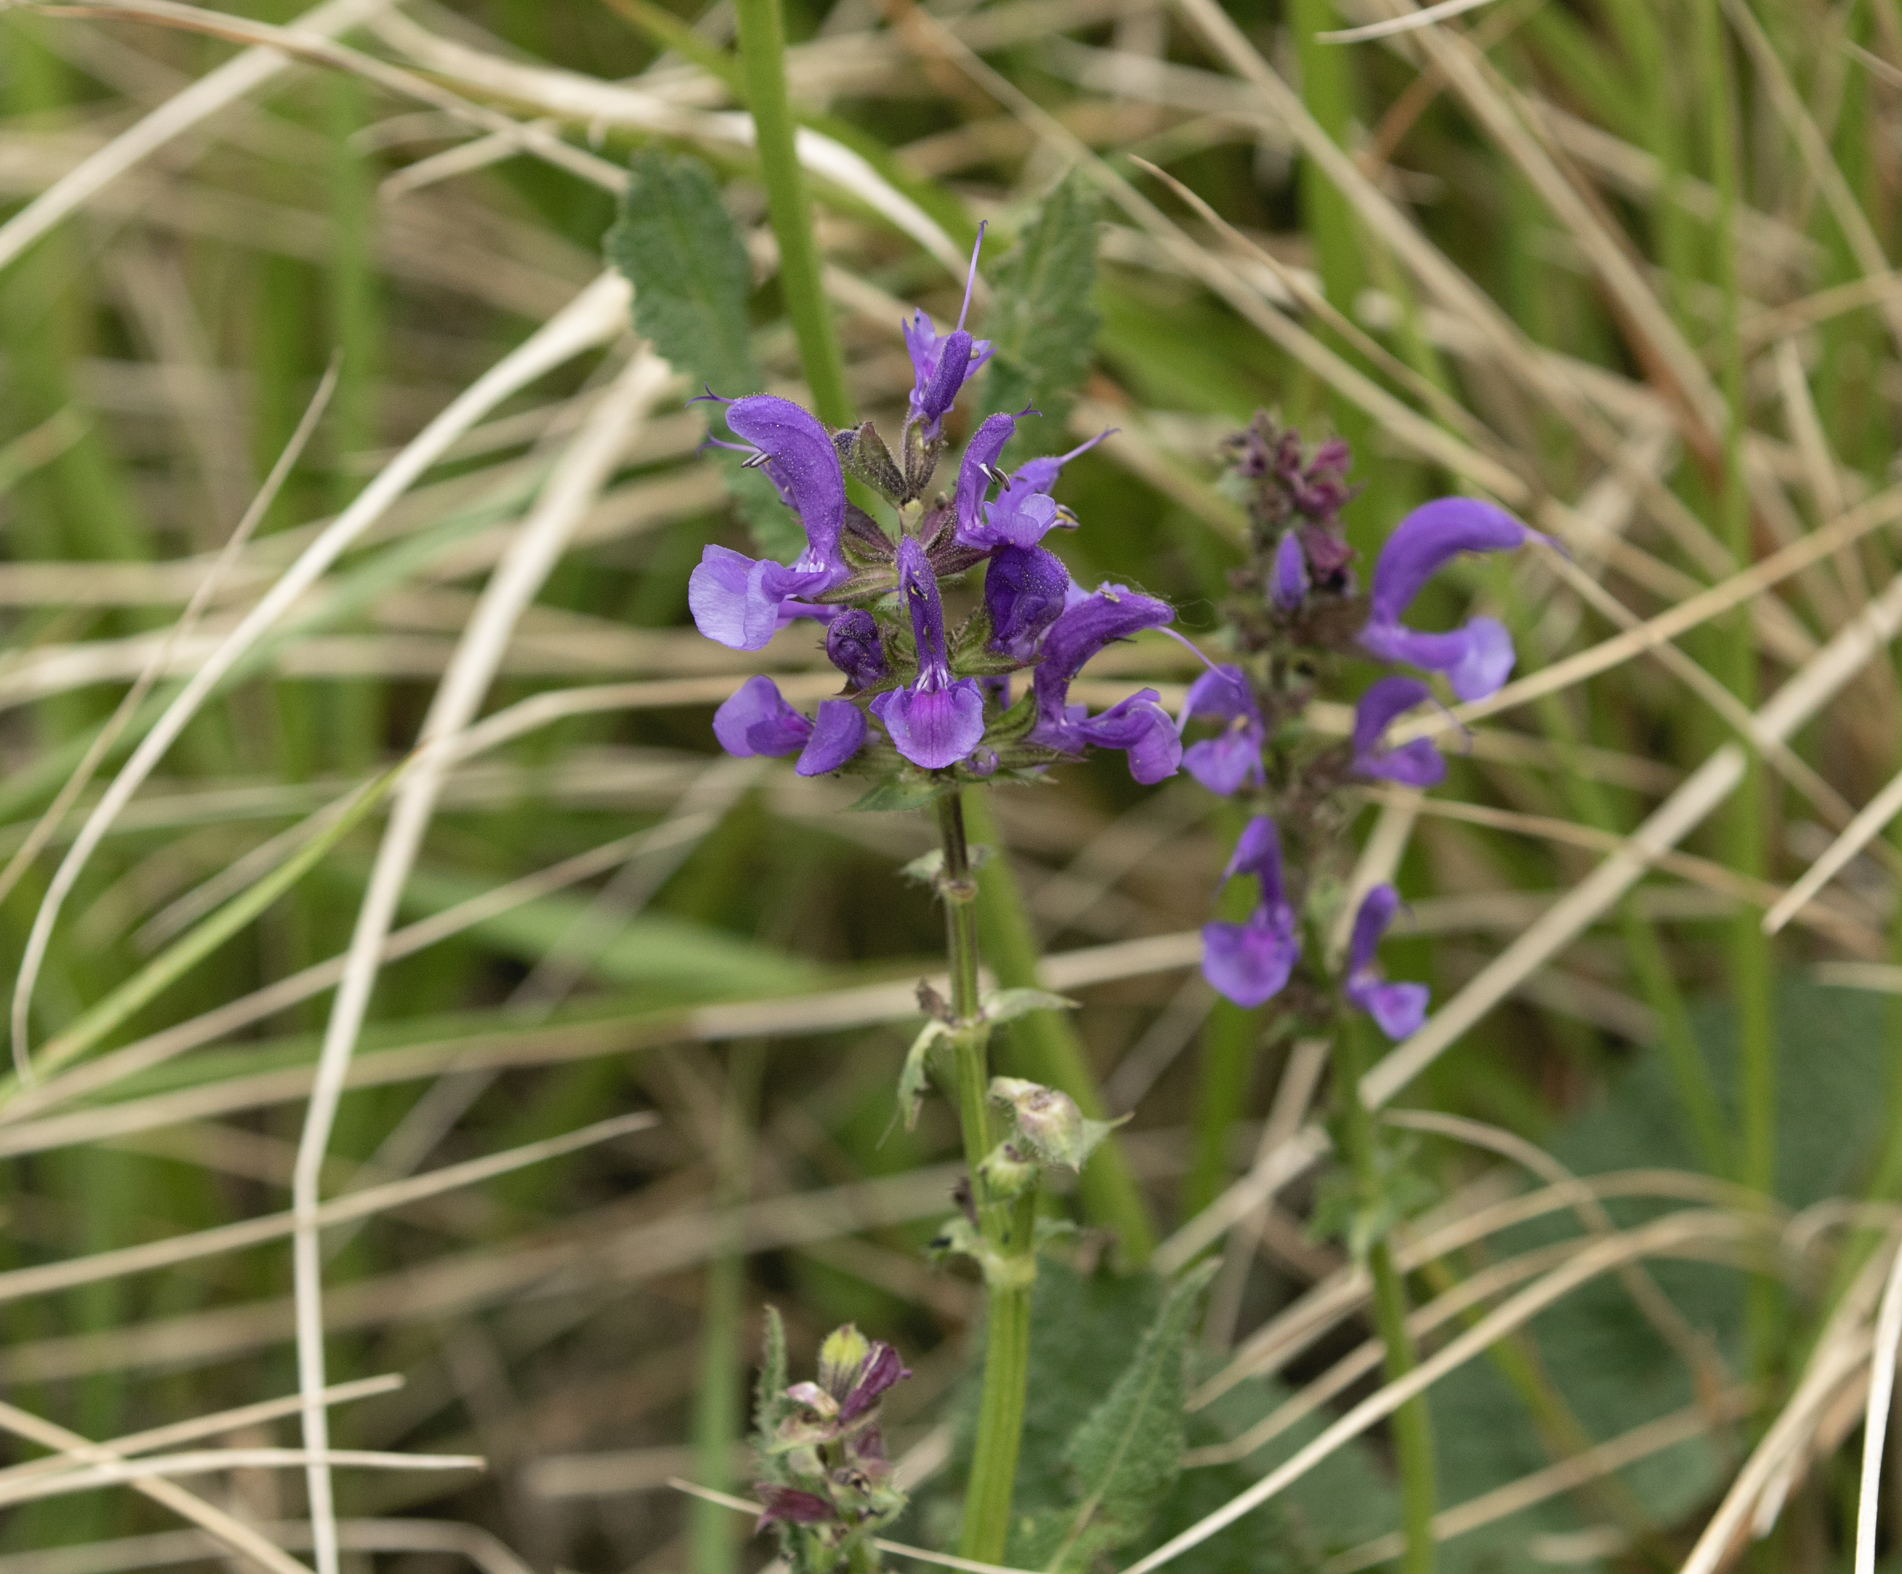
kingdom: Plantae
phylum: Tracheophyta
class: Magnoliopsida
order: Lamiales
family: Lamiaceae
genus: Salvia
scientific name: Salvia pratensis
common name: Meadow sage
